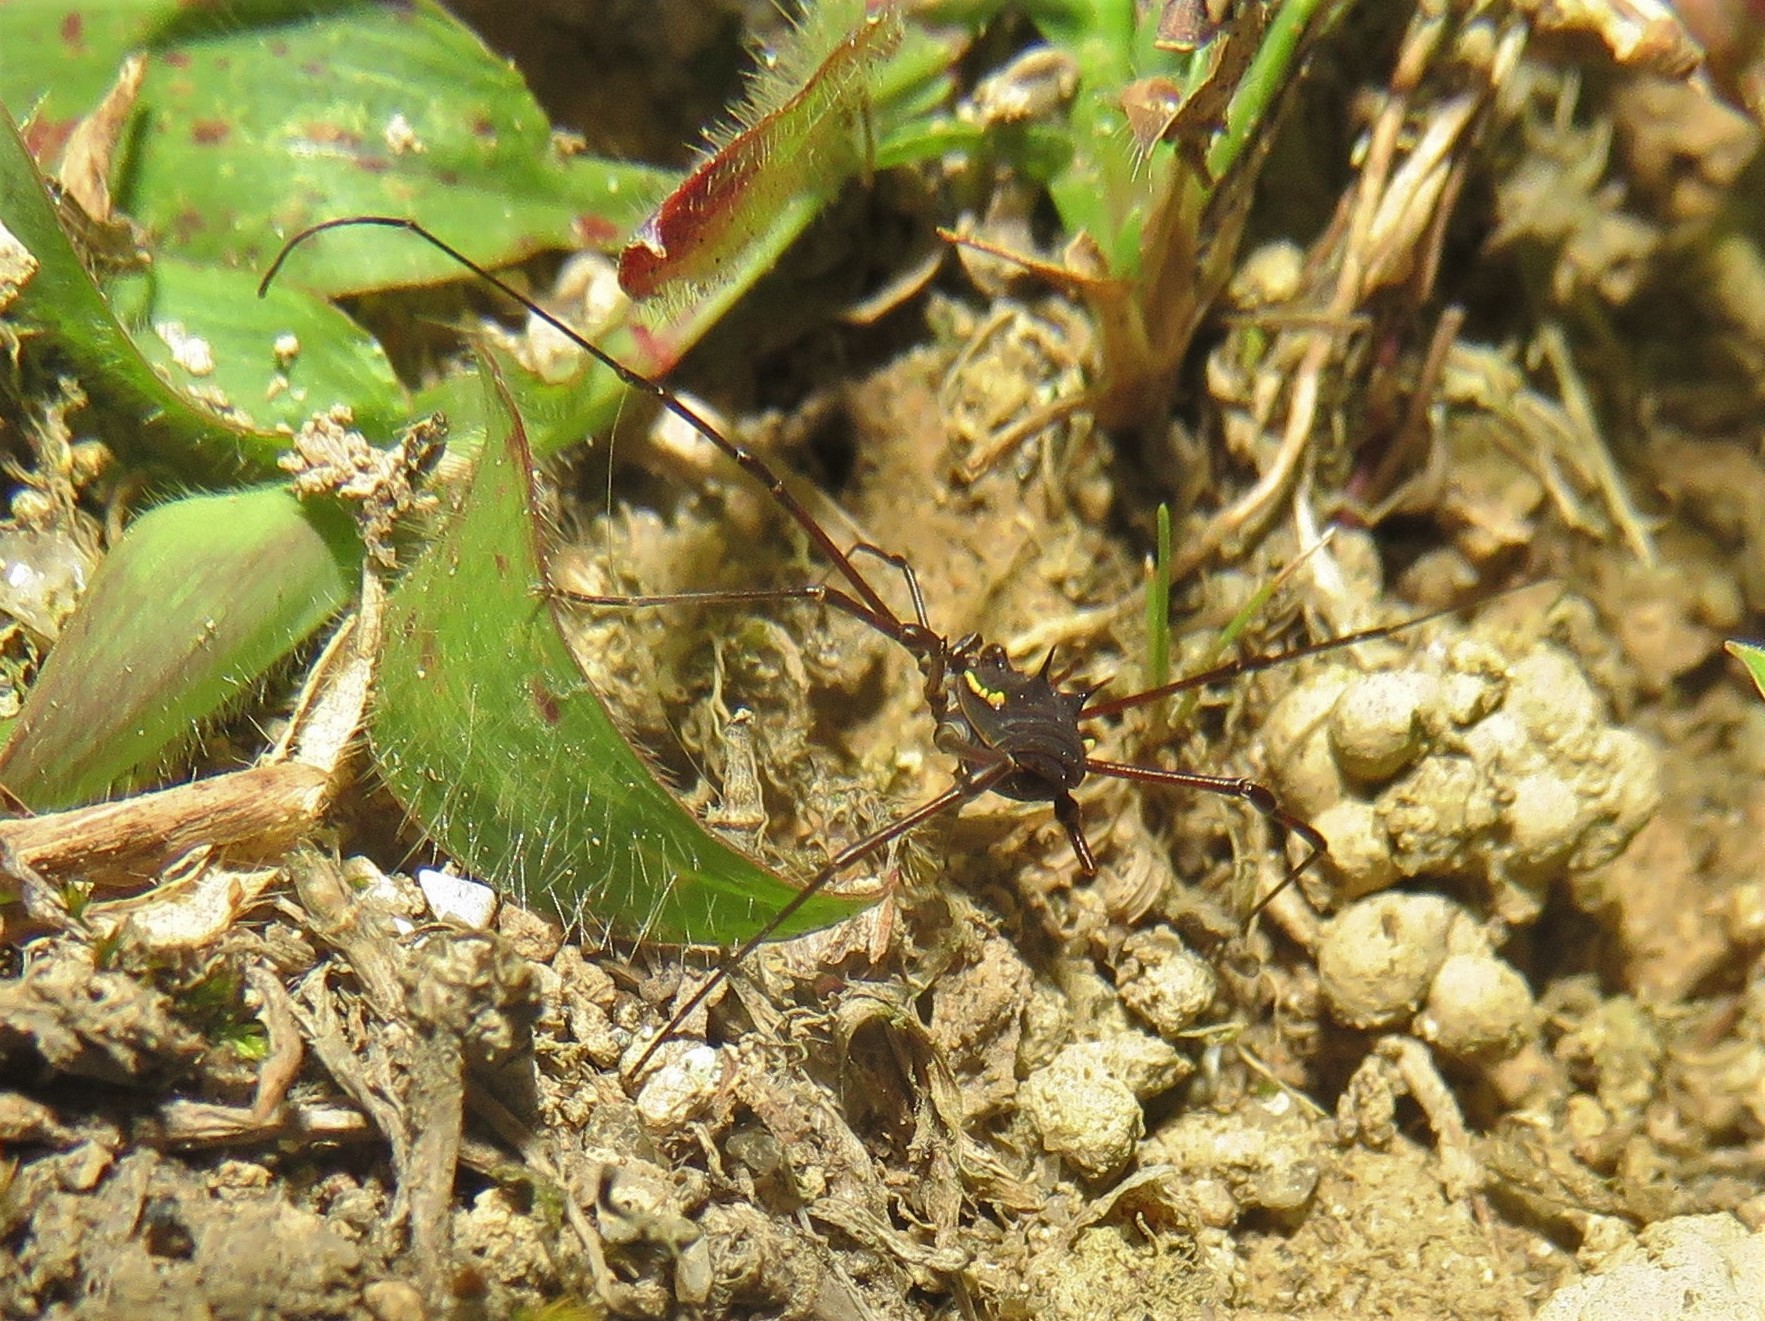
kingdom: Animalia
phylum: Arthropoda
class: Arachnida
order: Opiliones
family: Nomoclastidae
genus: Quindina
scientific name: Quindina albomarginis
